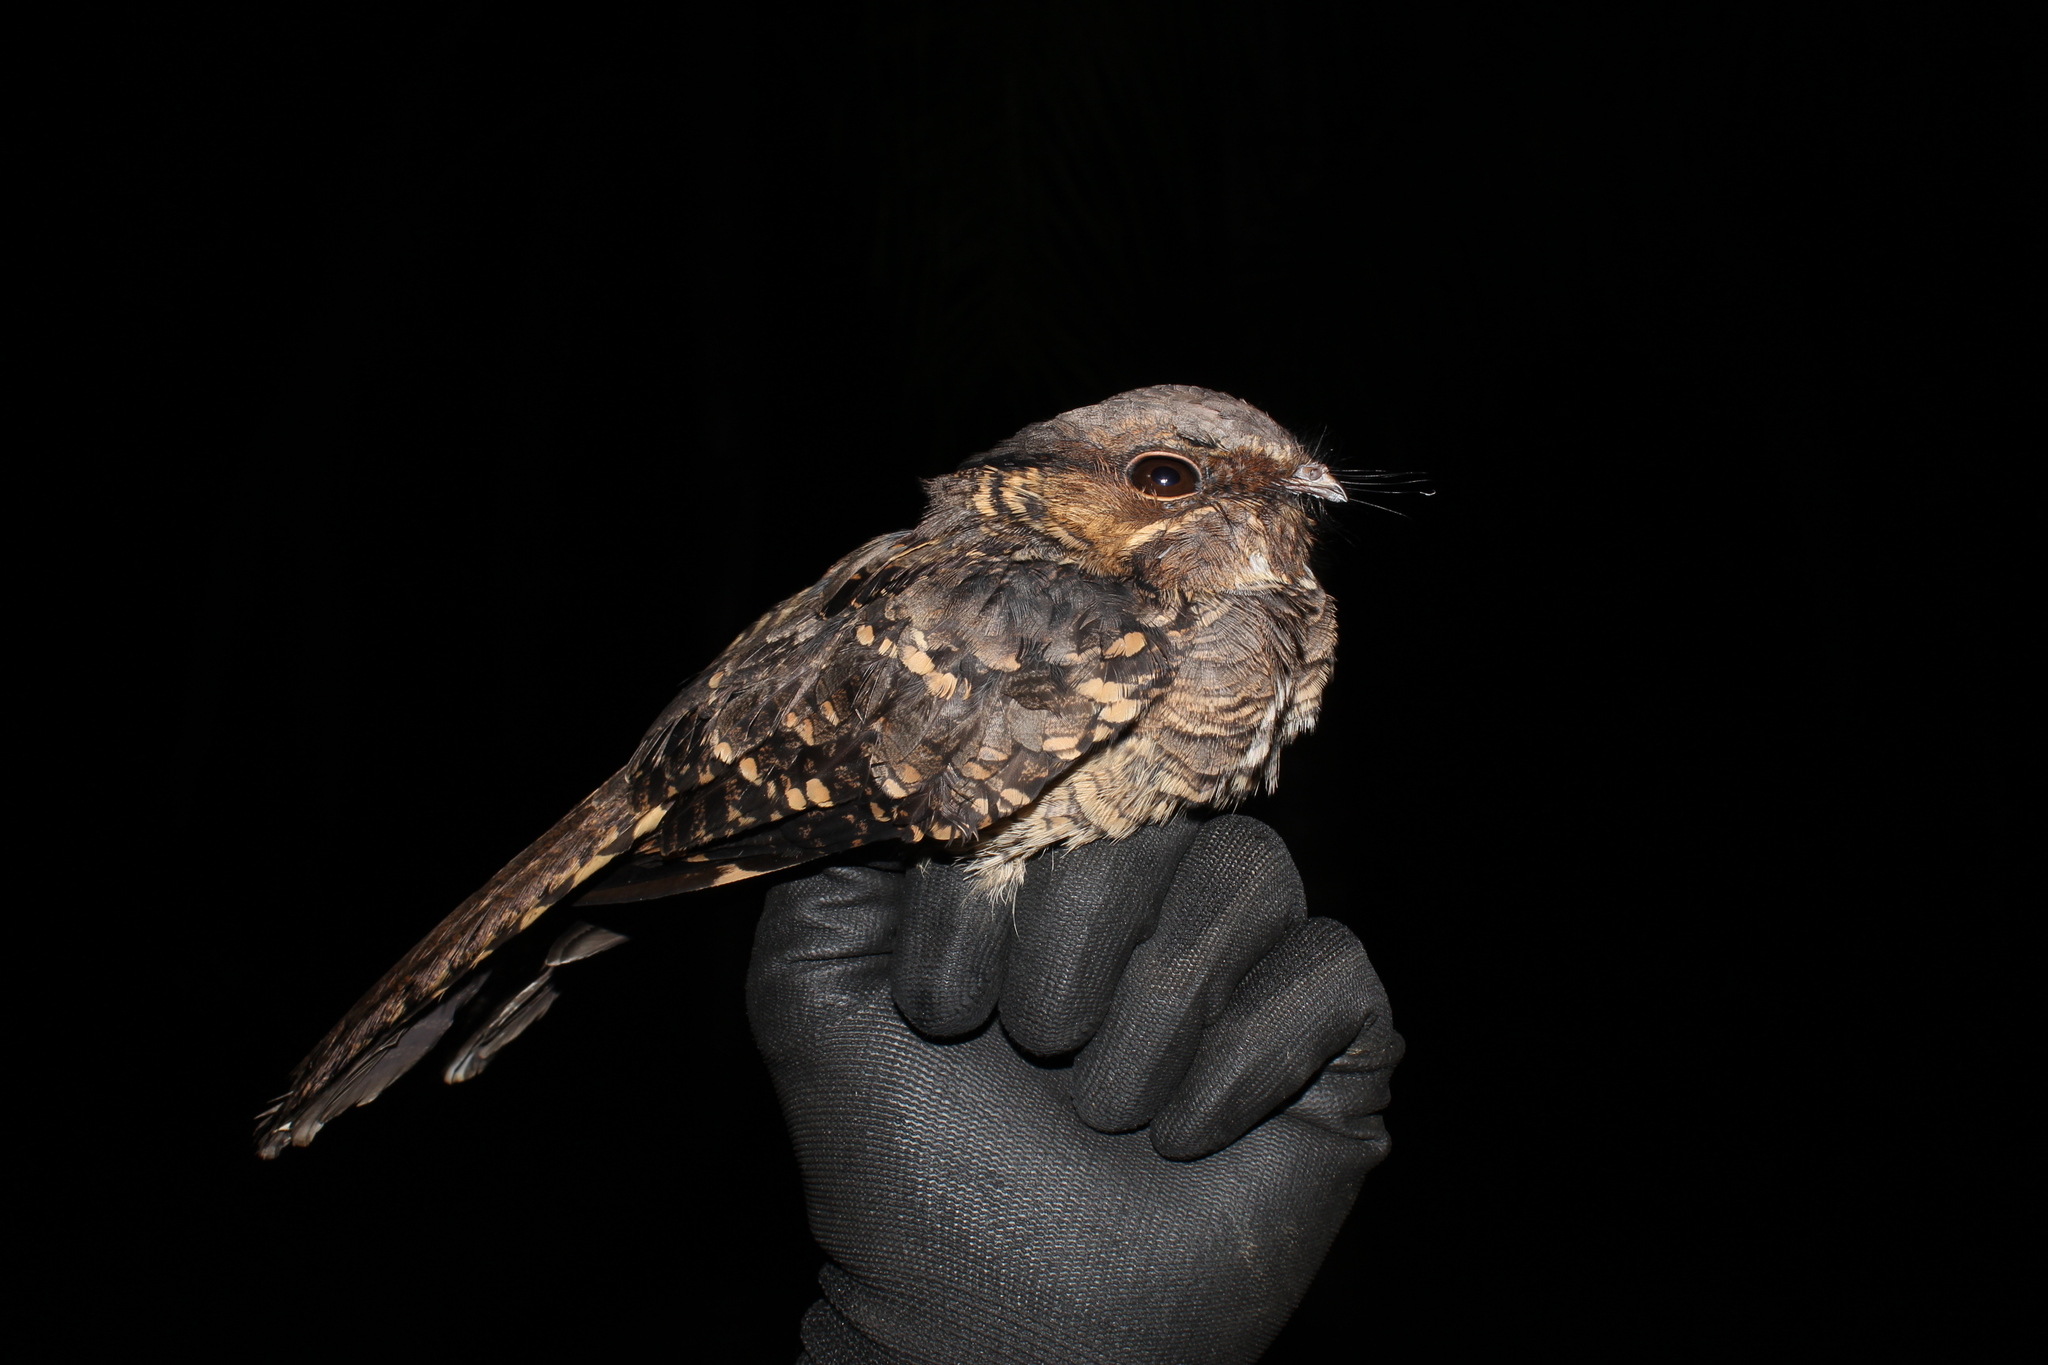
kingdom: Animalia
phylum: Chordata
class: Aves
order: Caprimulgiformes
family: Caprimulgidae
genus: Nyctidromus
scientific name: Nyctidromus albicollis
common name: Pauraque
